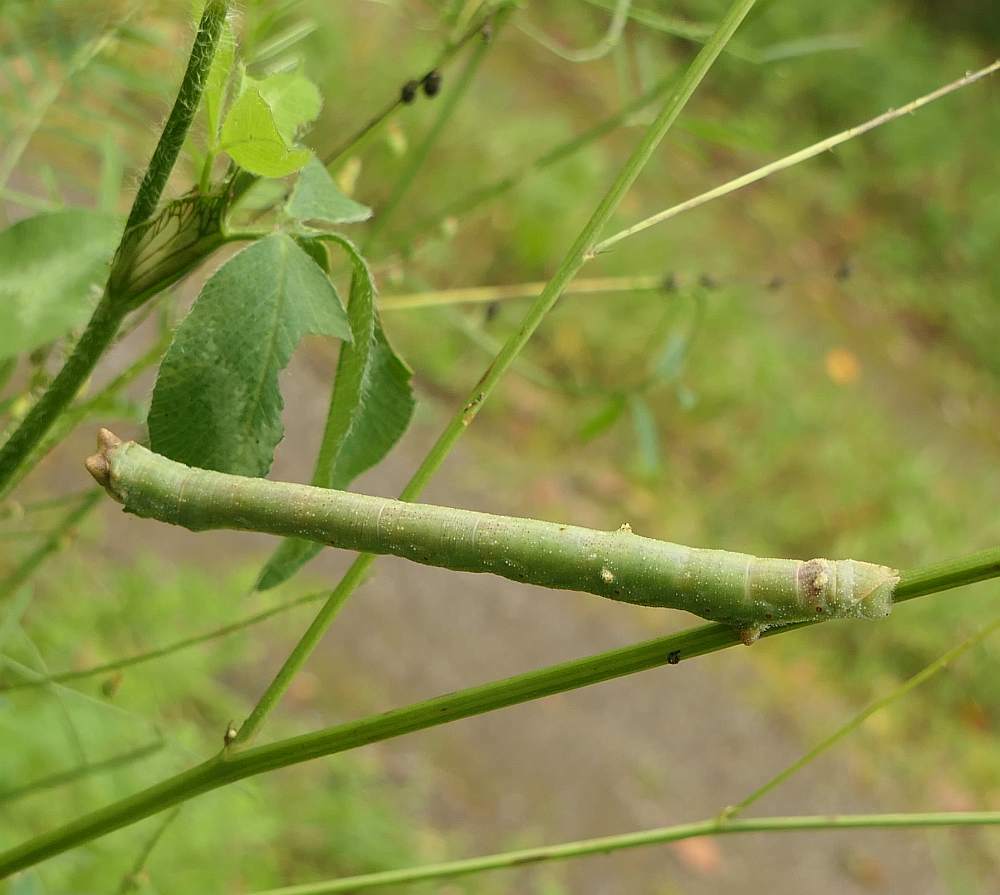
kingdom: Animalia
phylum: Arthropoda
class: Insecta
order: Lepidoptera
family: Geometridae
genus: Biston
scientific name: Biston betularia
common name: Peppered moth
